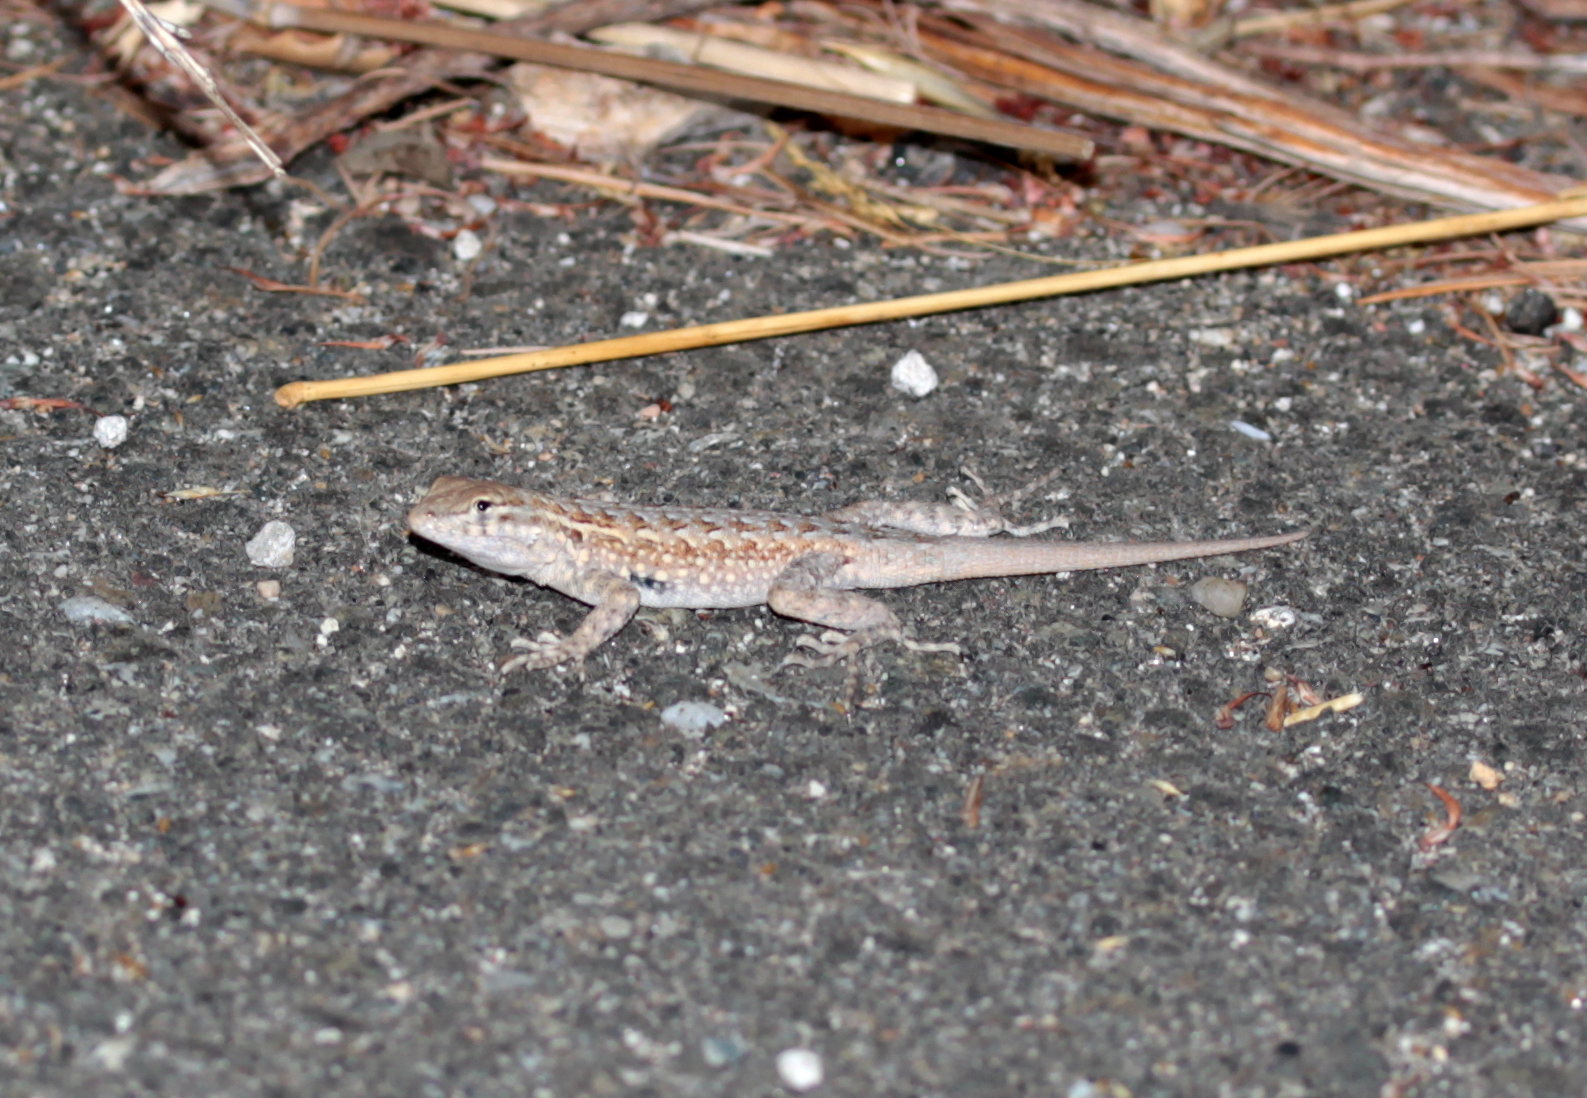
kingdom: Animalia
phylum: Chordata
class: Squamata
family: Phrynosomatidae
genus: Uta
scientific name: Uta stansburiana
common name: Side-blotched lizard
